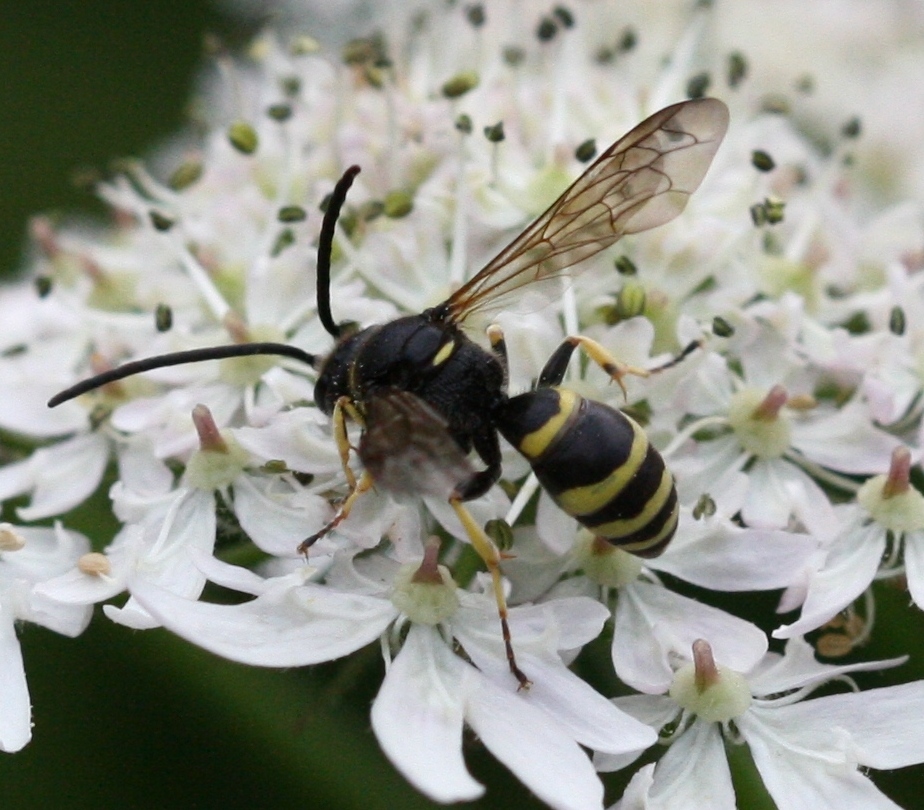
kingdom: Animalia
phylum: Arthropoda
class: Insecta
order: Hymenoptera
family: Crabronidae
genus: Argogorytes
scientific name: Argogorytes fargeii
